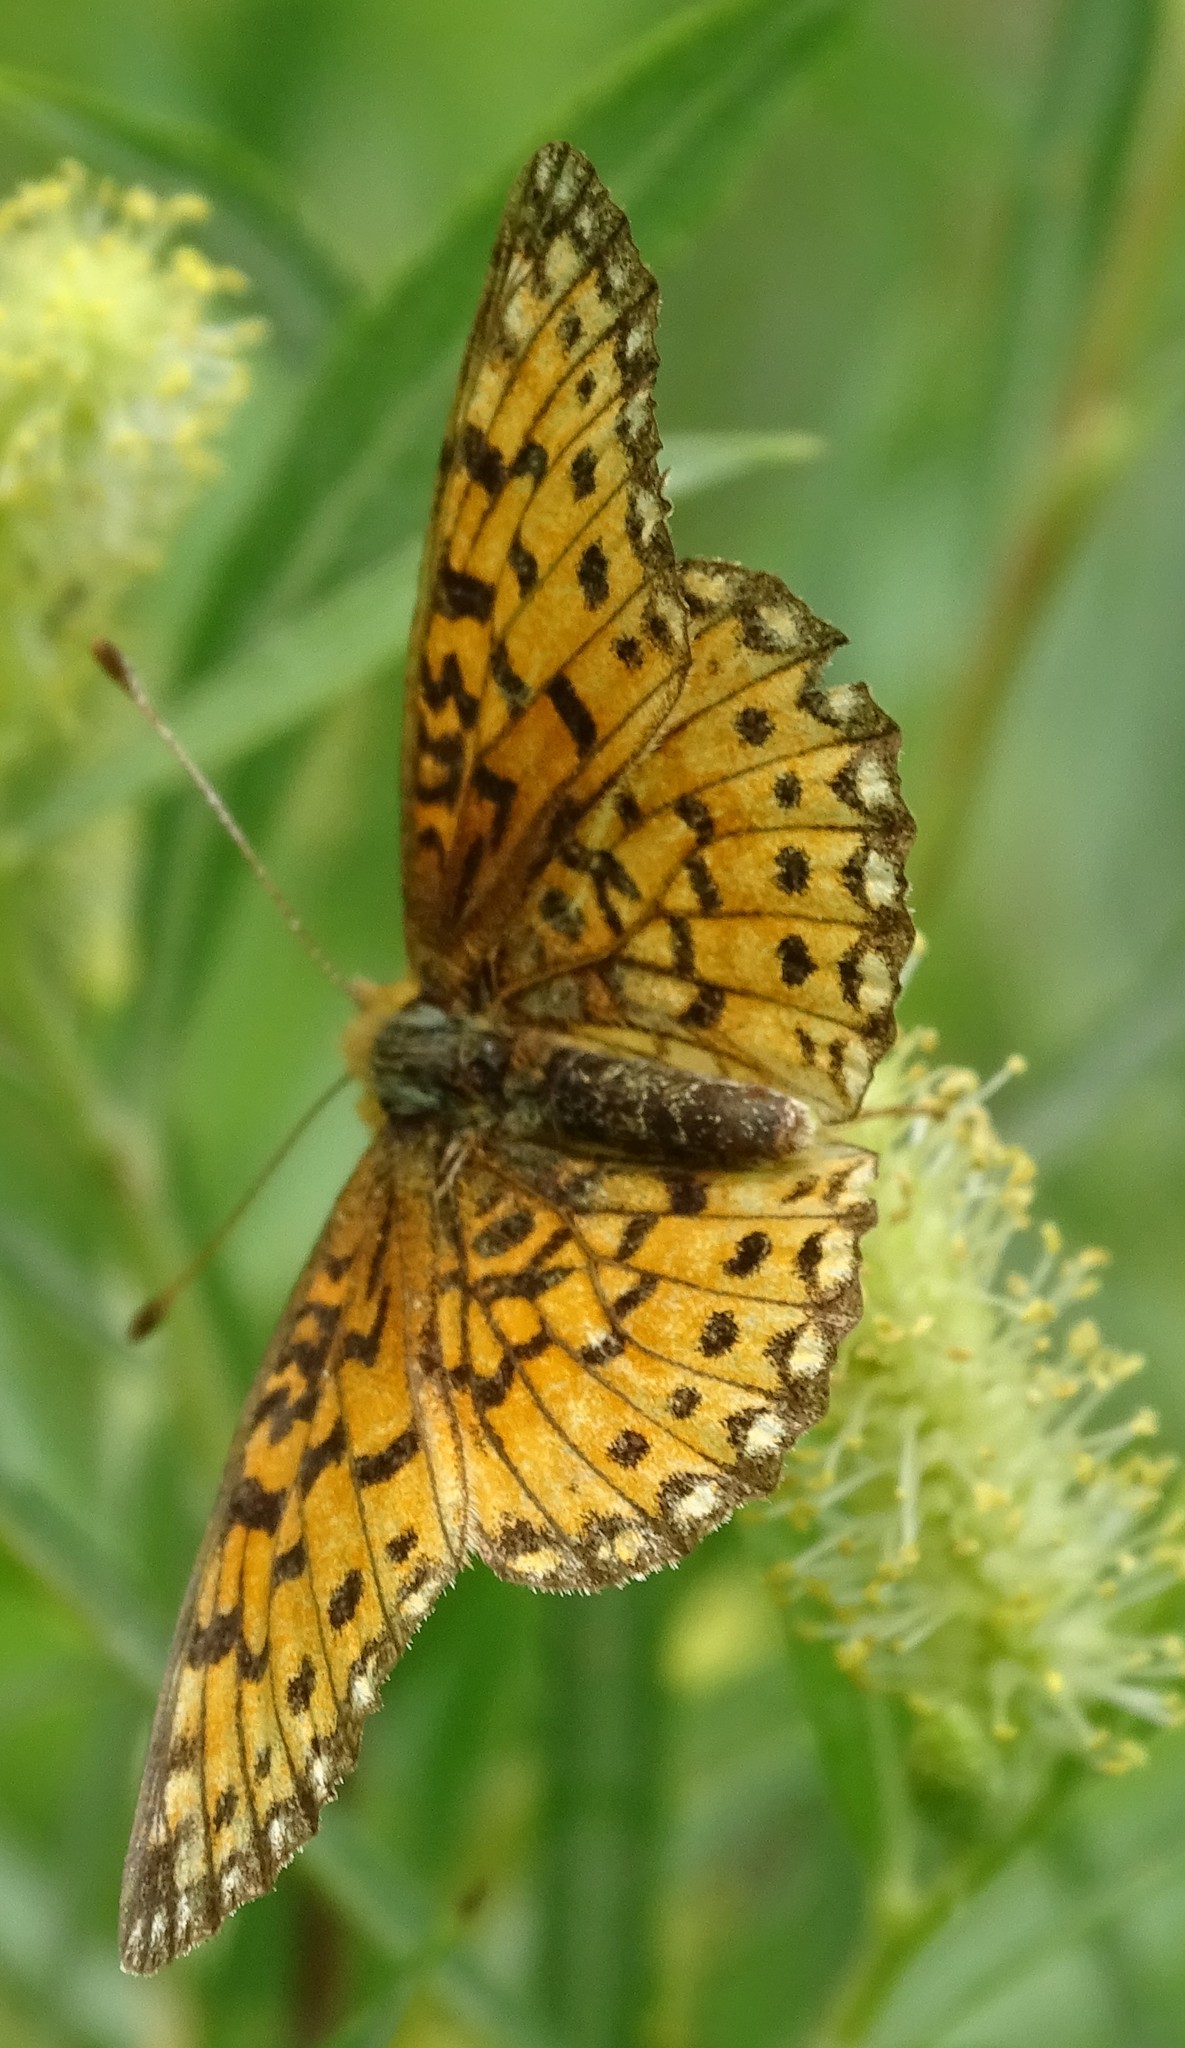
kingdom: Animalia
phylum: Arthropoda
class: Insecta
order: Lepidoptera
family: Nymphalidae
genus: Boloria
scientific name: Boloria
